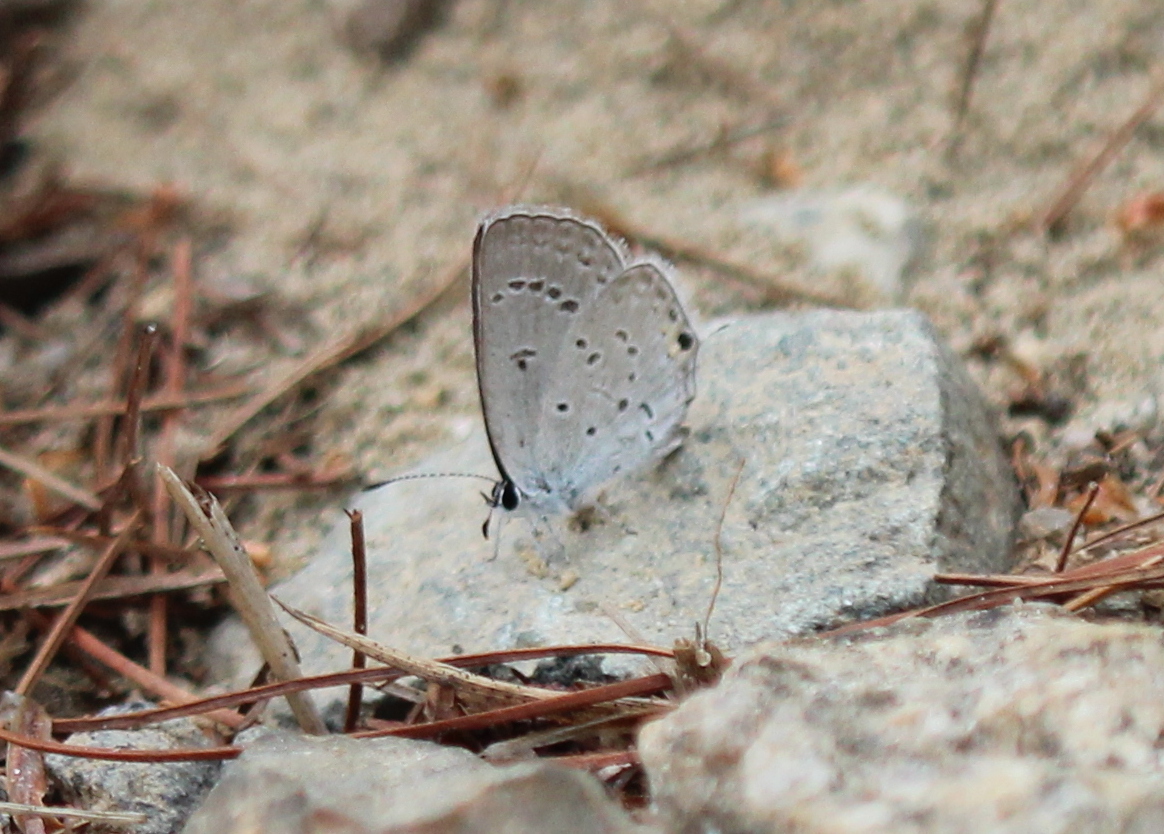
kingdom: Animalia
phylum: Arthropoda
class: Insecta
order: Lepidoptera
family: Lycaenidae
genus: Elkalyce
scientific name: Elkalyce comyntas
